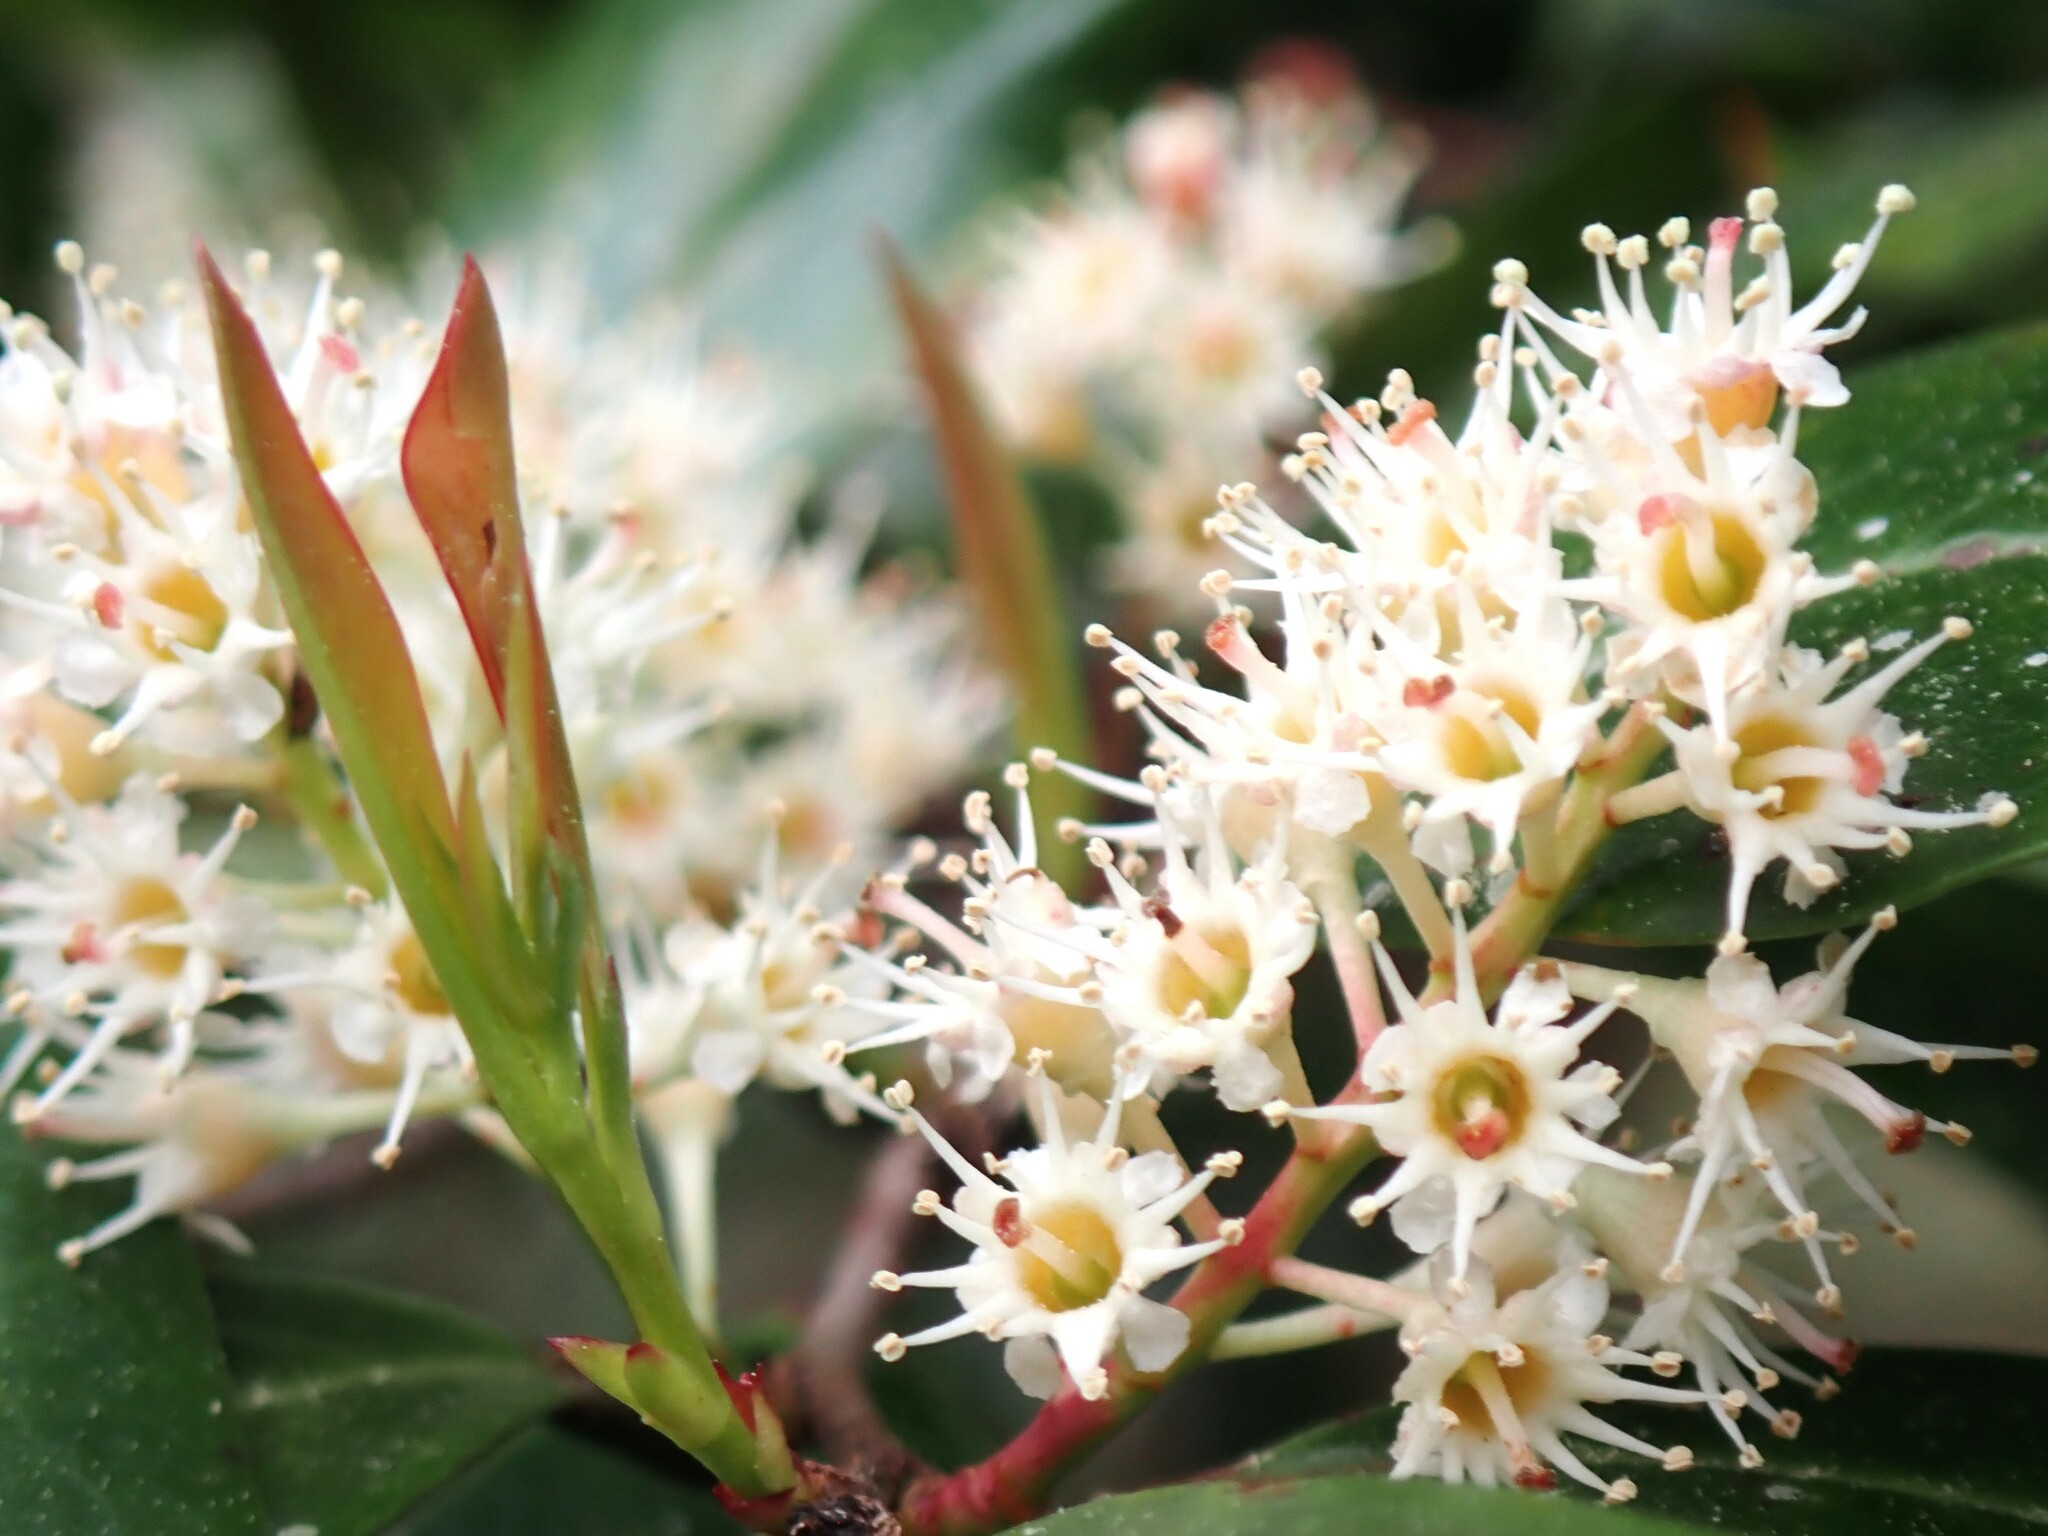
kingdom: Plantae
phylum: Tracheophyta
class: Magnoliopsida
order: Rosales
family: Rosaceae
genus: Prunus
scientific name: Prunus caroliniana
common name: Carolina laurel cherry
